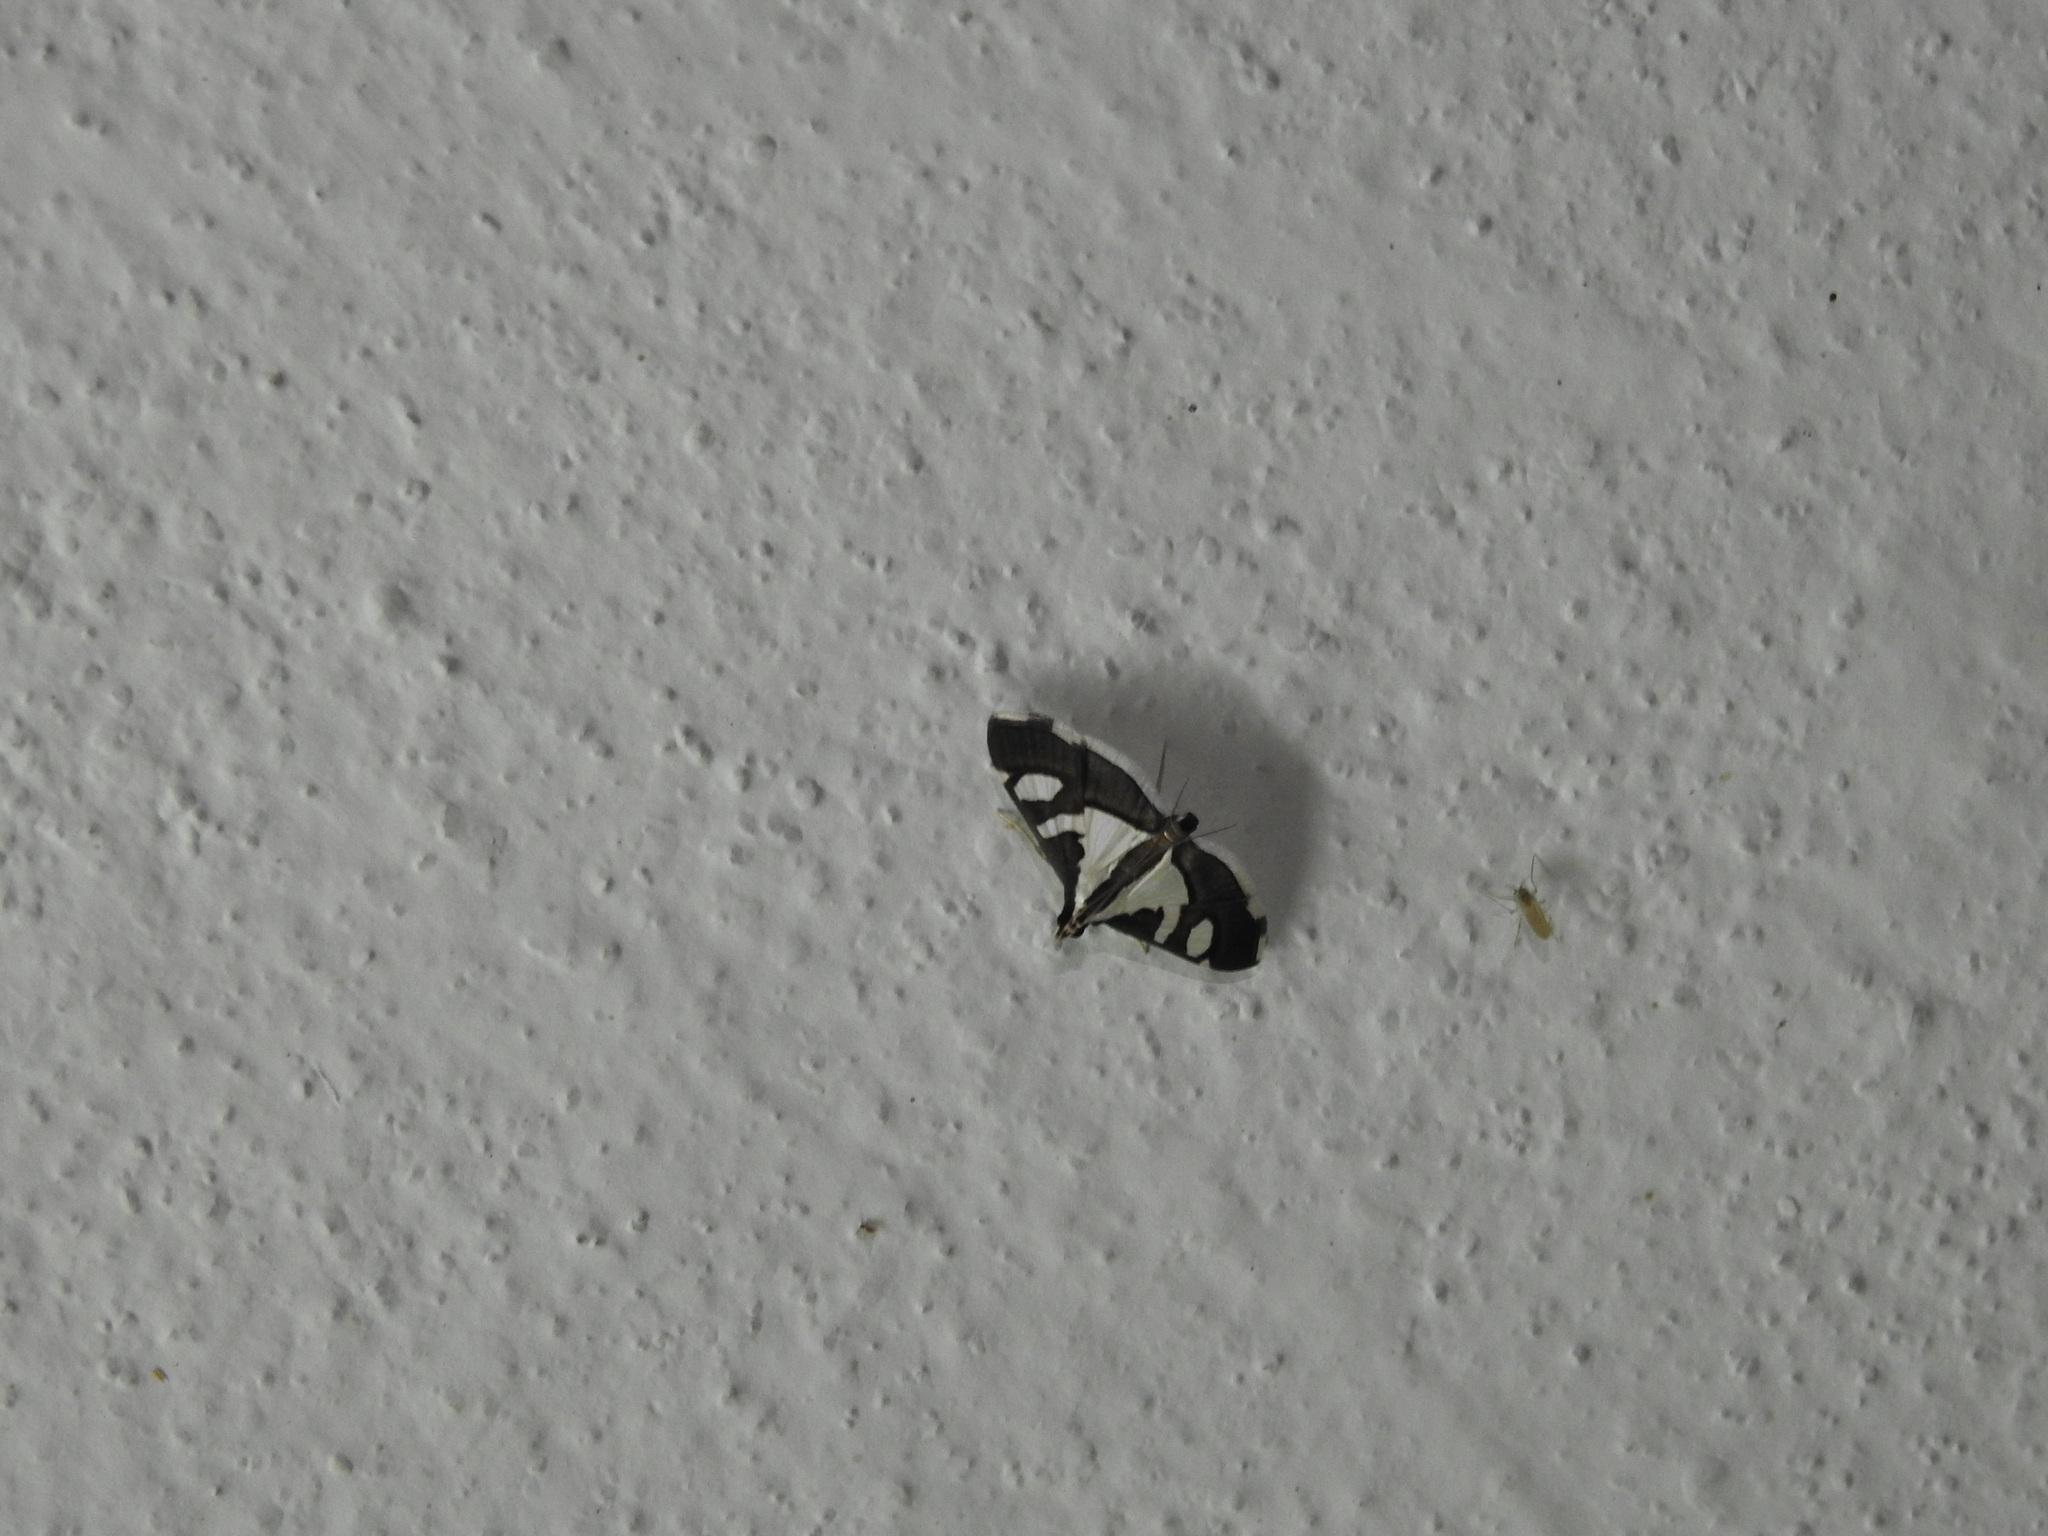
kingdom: Animalia
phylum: Arthropoda
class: Insecta
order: Lepidoptera
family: Crambidae
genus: Glyphodes
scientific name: Glyphodes bicolor
